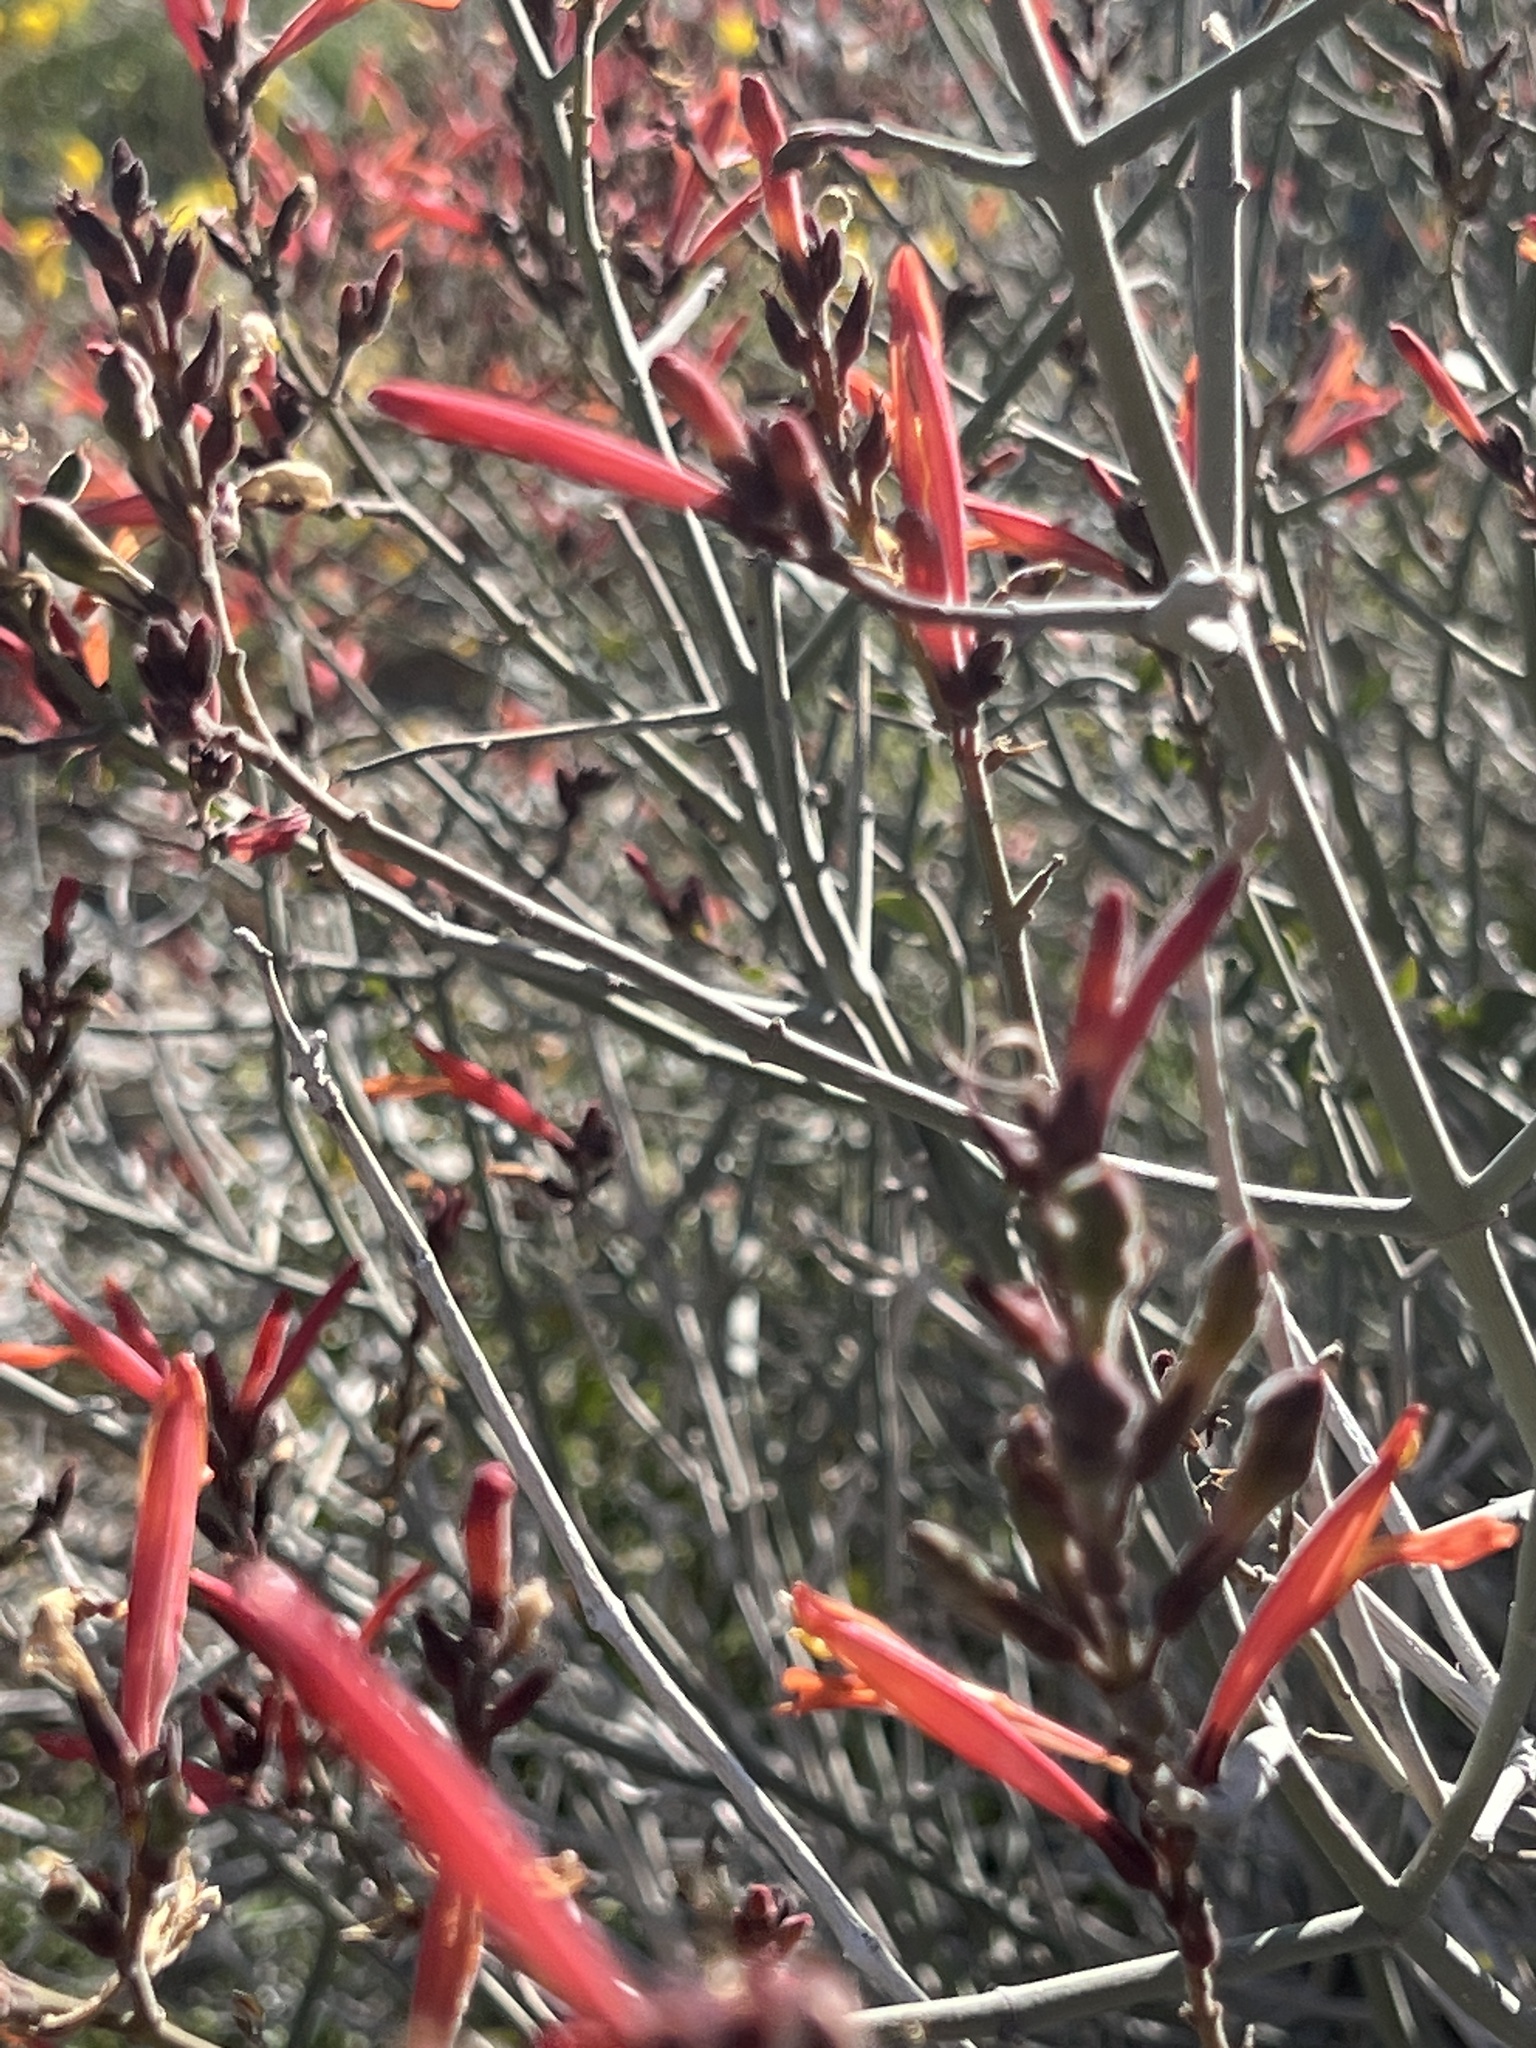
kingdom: Plantae
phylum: Tracheophyta
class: Magnoliopsida
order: Lamiales
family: Acanthaceae
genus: Justicia
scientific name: Justicia californica
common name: Chuparosa-honeysuckle
